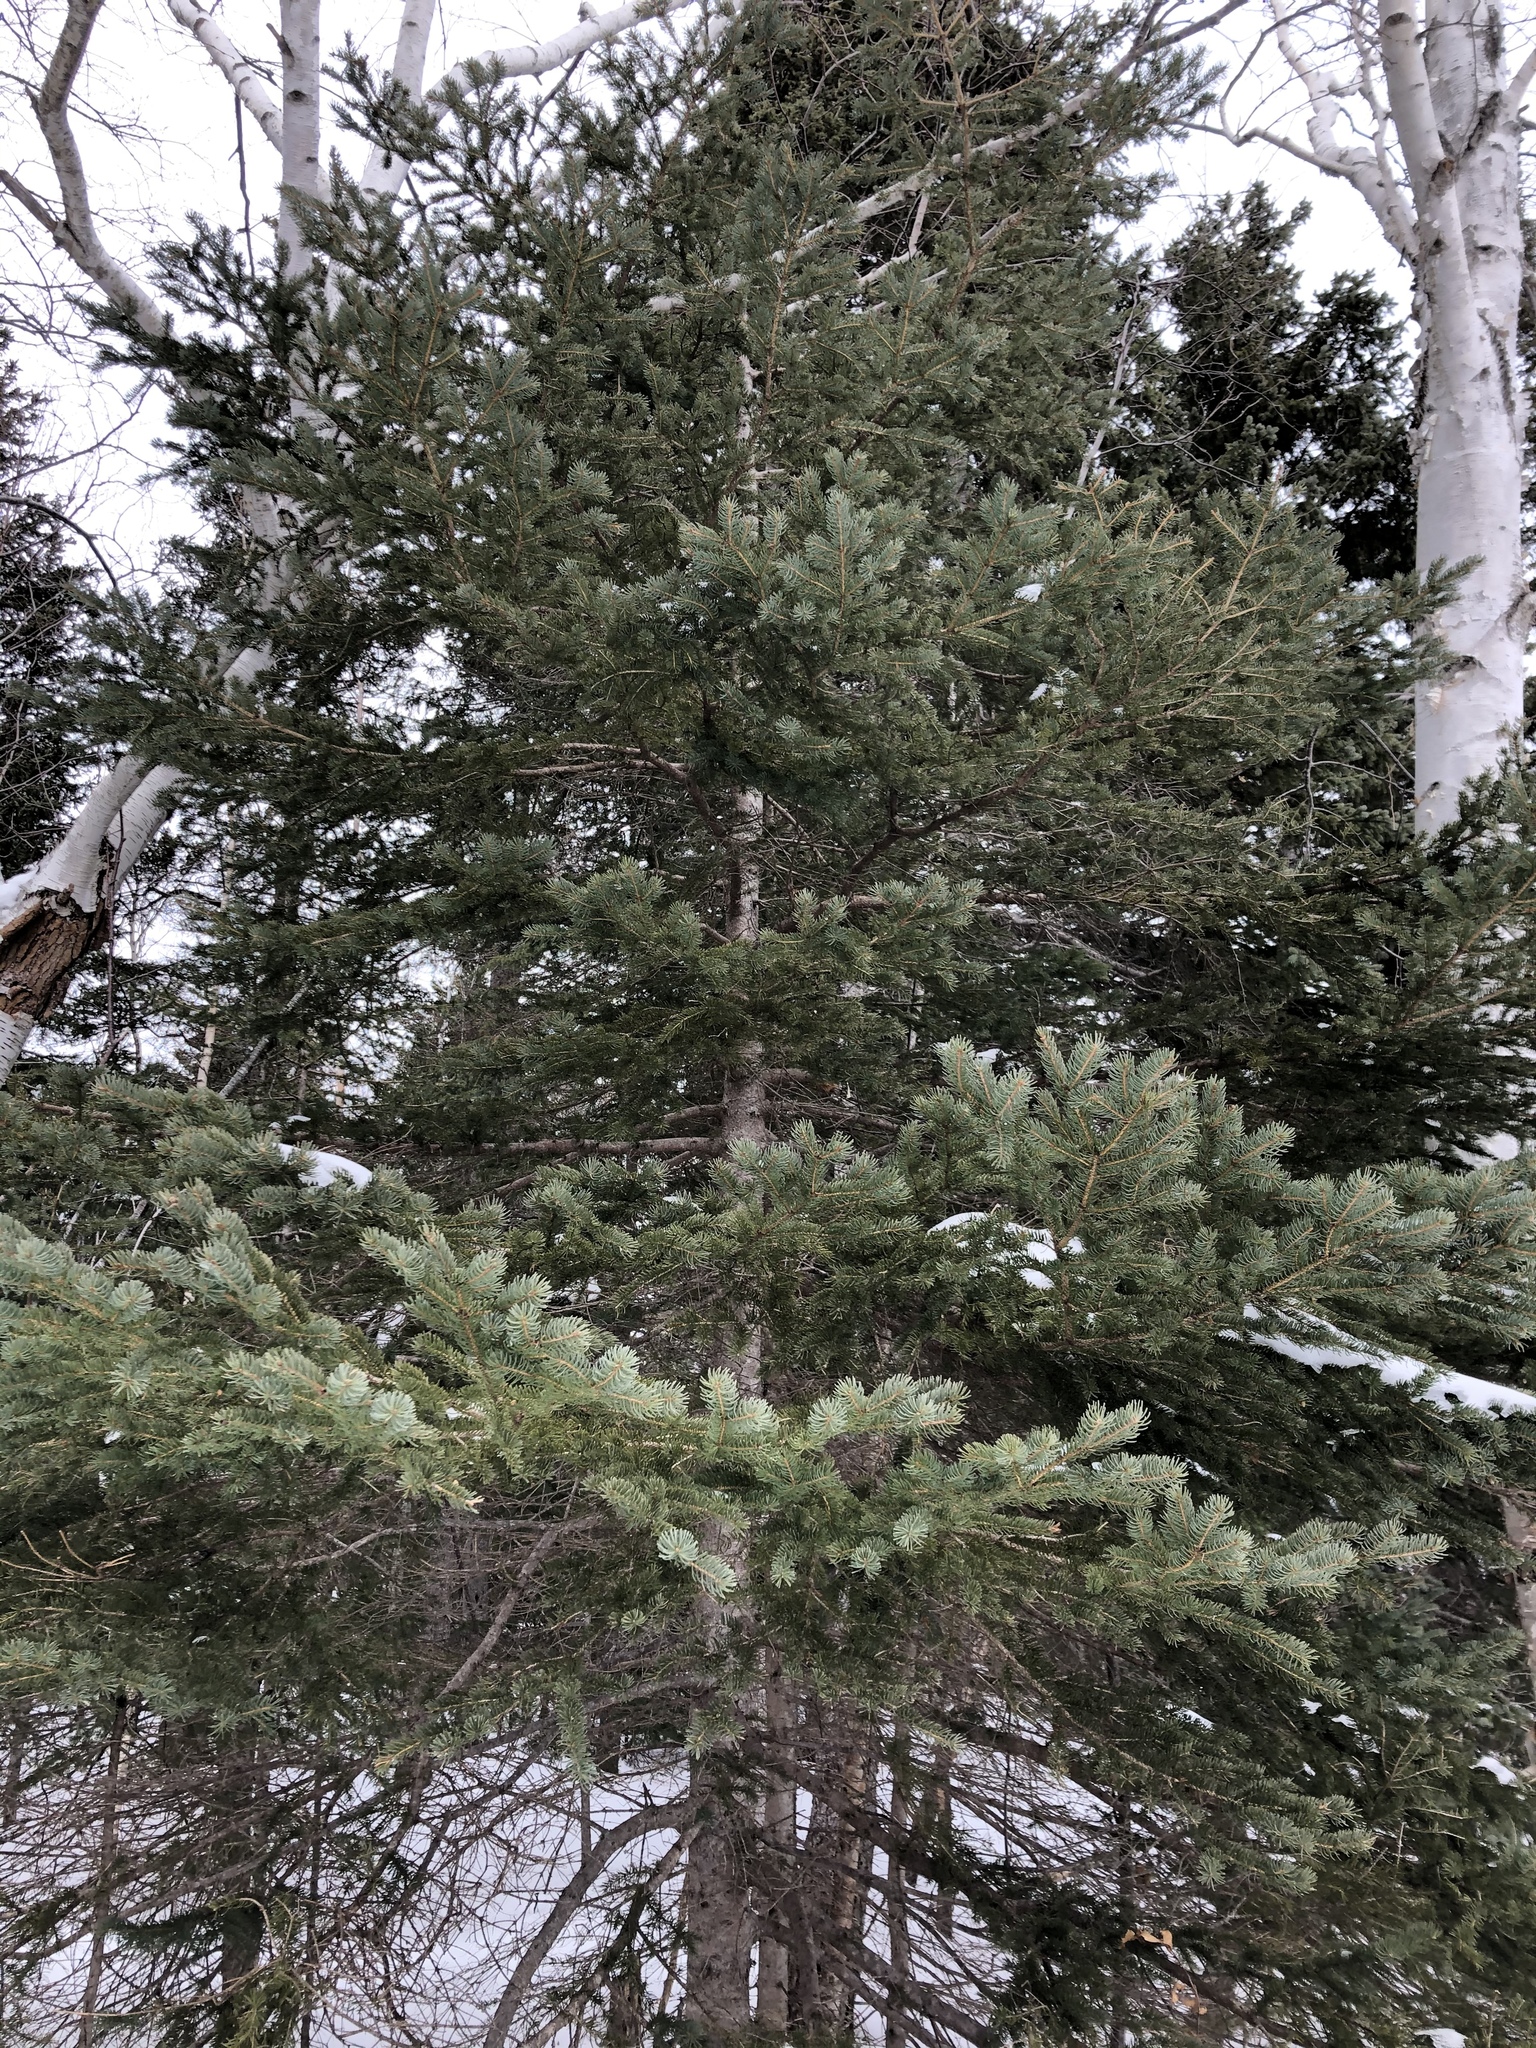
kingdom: Plantae
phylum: Tracheophyta
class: Pinopsida
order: Pinales
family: Pinaceae
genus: Picea
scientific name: Picea glauca
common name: White spruce
